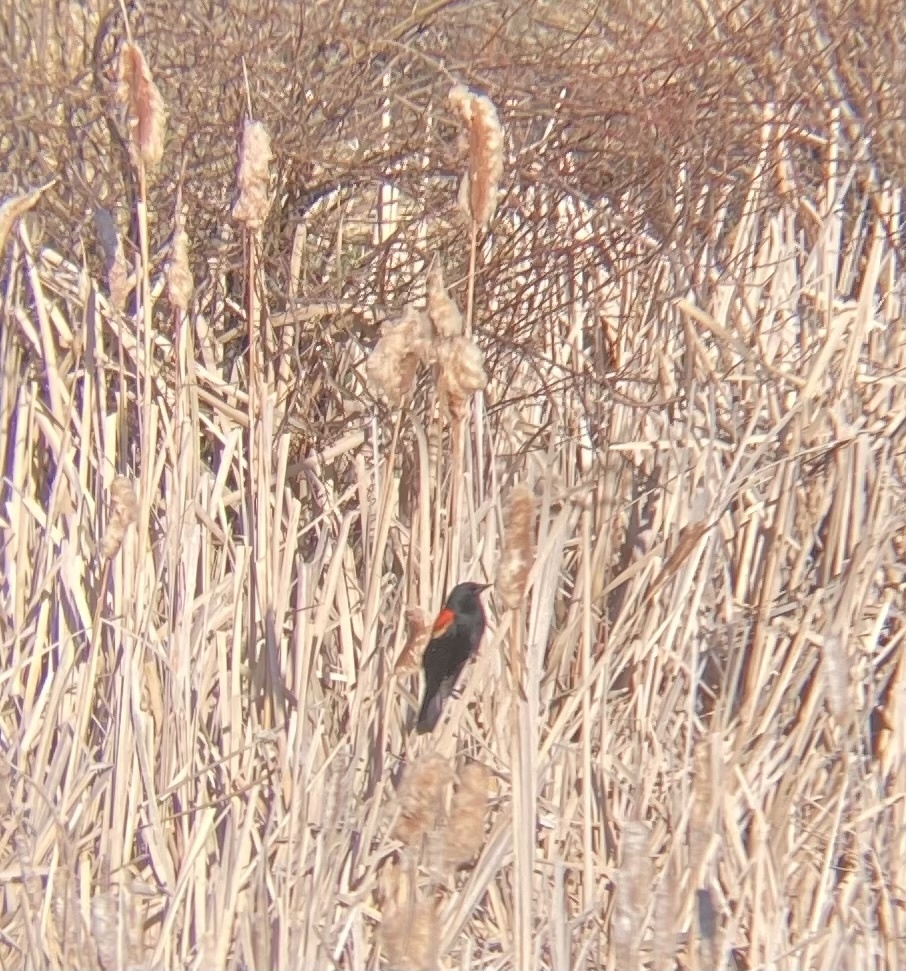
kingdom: Animalia
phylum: Chordata
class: Aves
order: Passeriformes
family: Icteridae
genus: Agelaius
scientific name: Agelaius phoeniceus
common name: Red-winged blackbird
